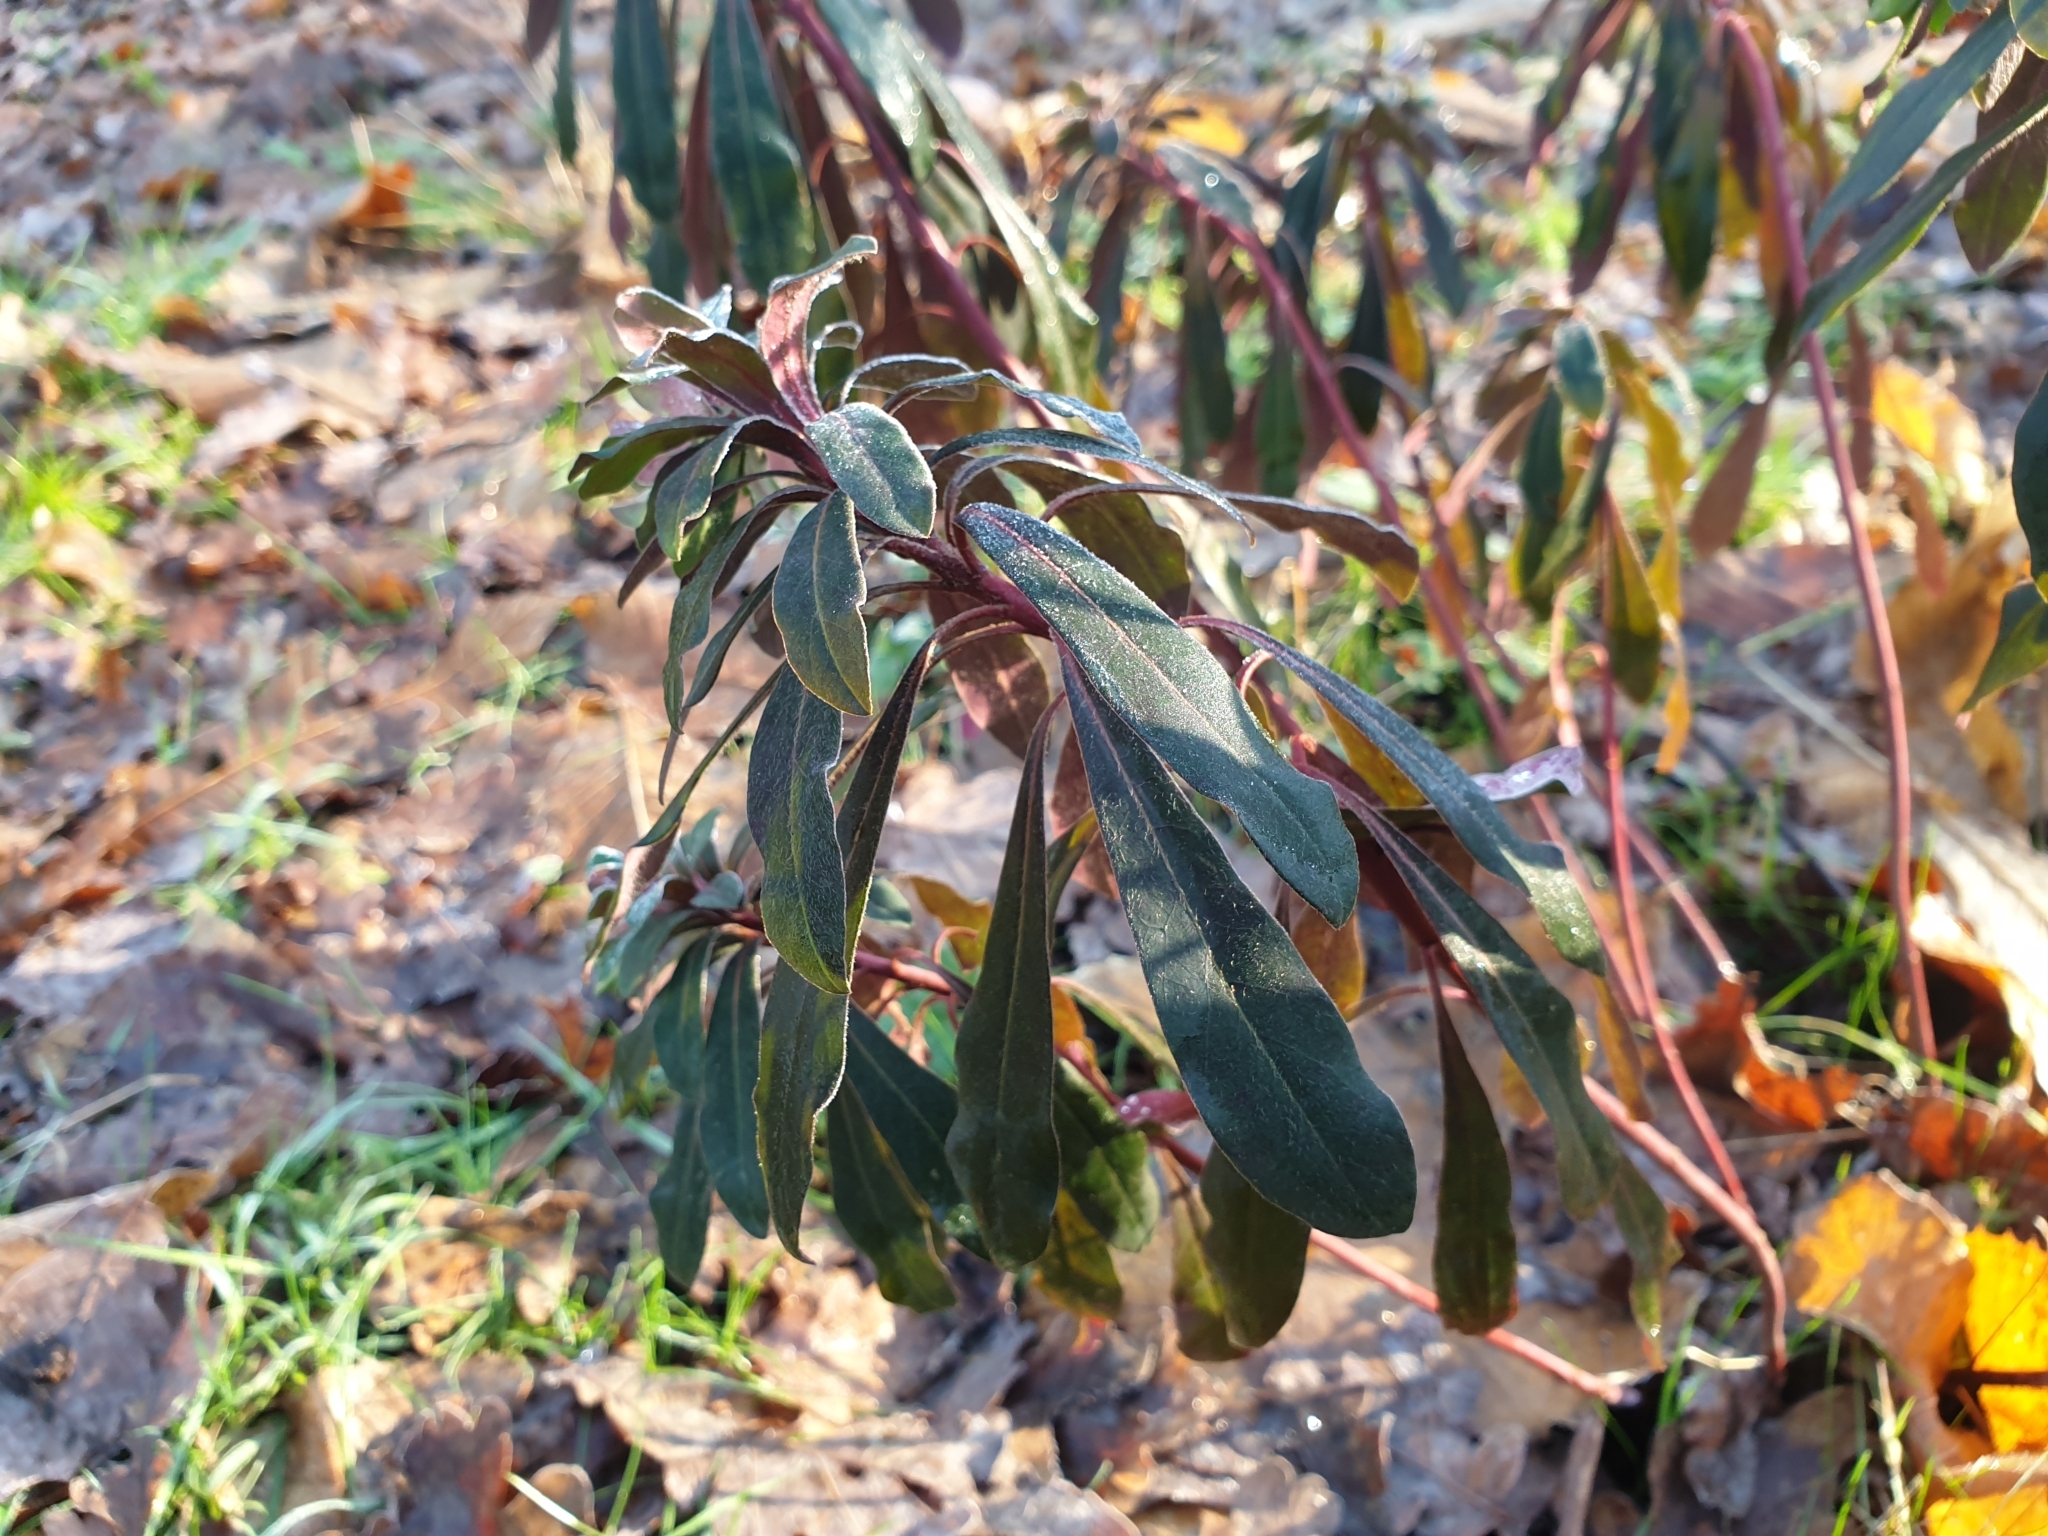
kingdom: Plantae
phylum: Tracheophyta
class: Magnoliopsida
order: Malpighiales
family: Euphorbiaceae
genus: Euphorbia
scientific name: Euphorbia amygdaloides
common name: Wood spurge
